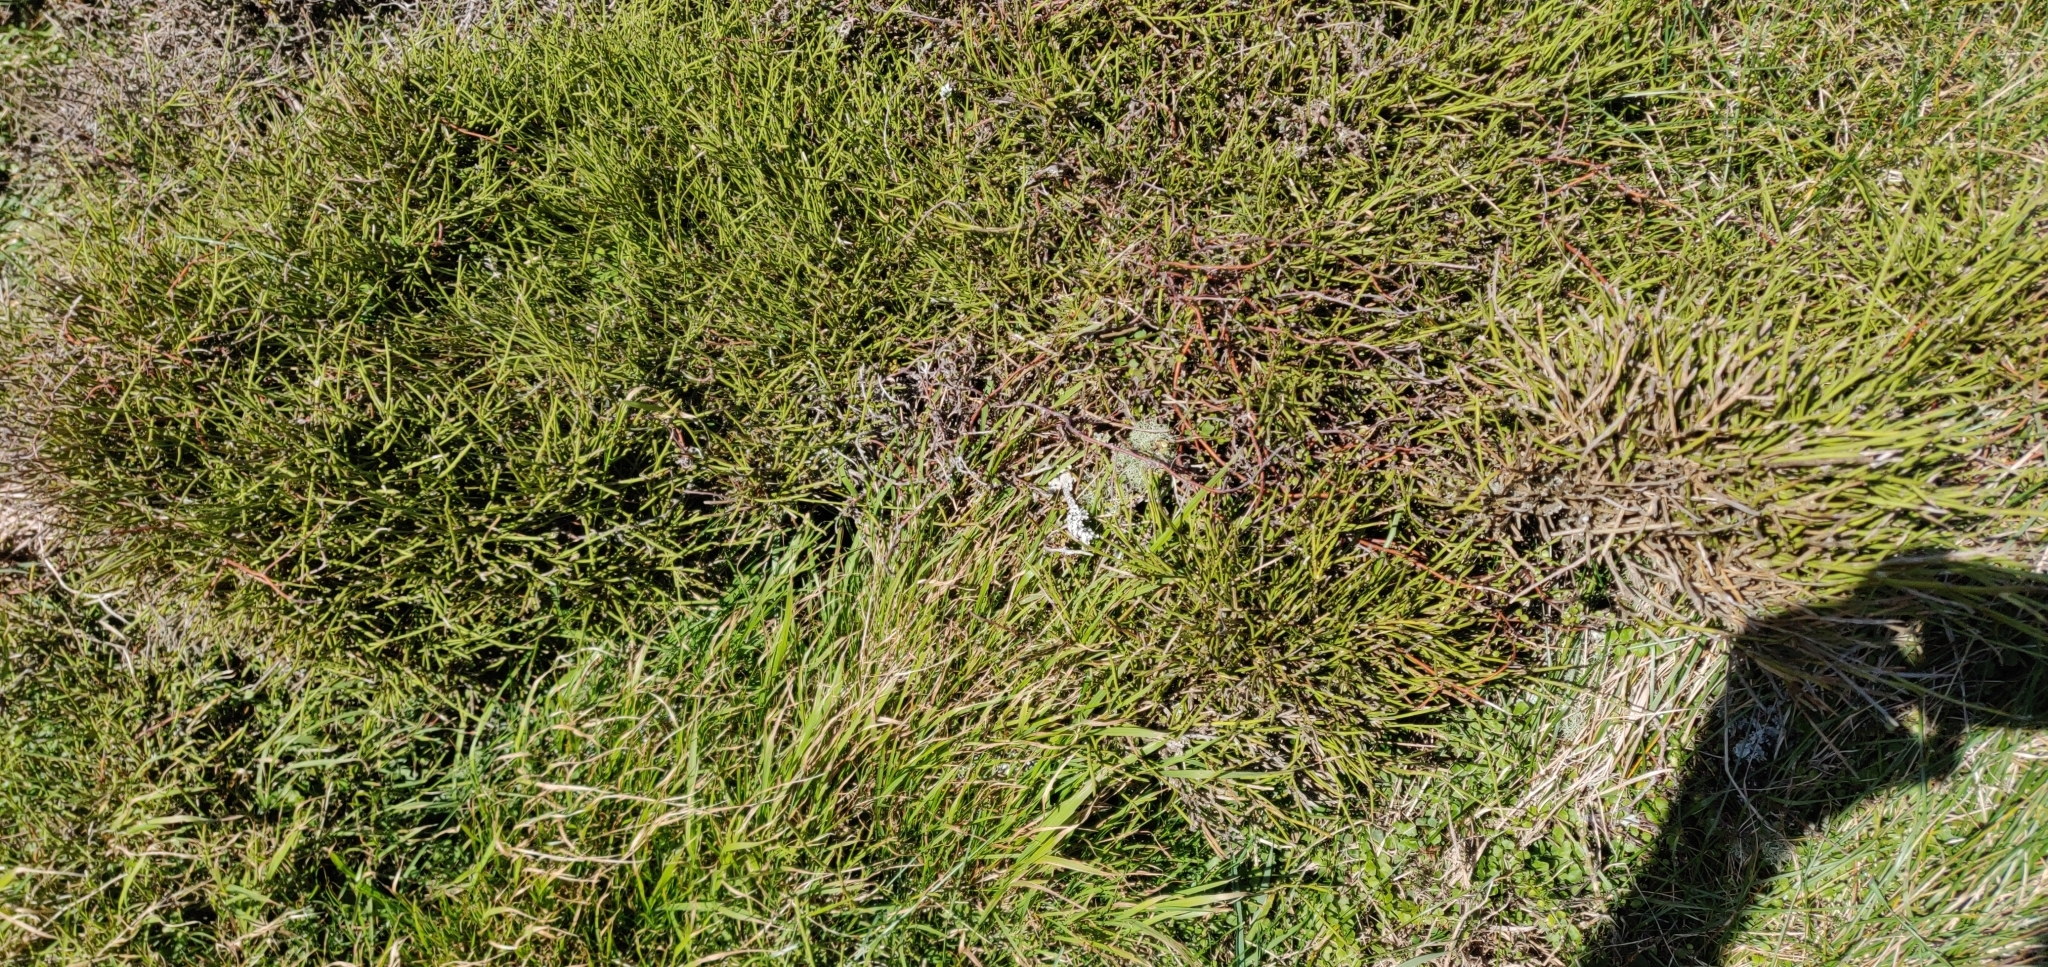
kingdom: Plantae
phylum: Tracheophyta
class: Magnoliopsida
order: Fabales
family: Fabaceae
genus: Carmichaelia
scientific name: Carmichaelia australis
